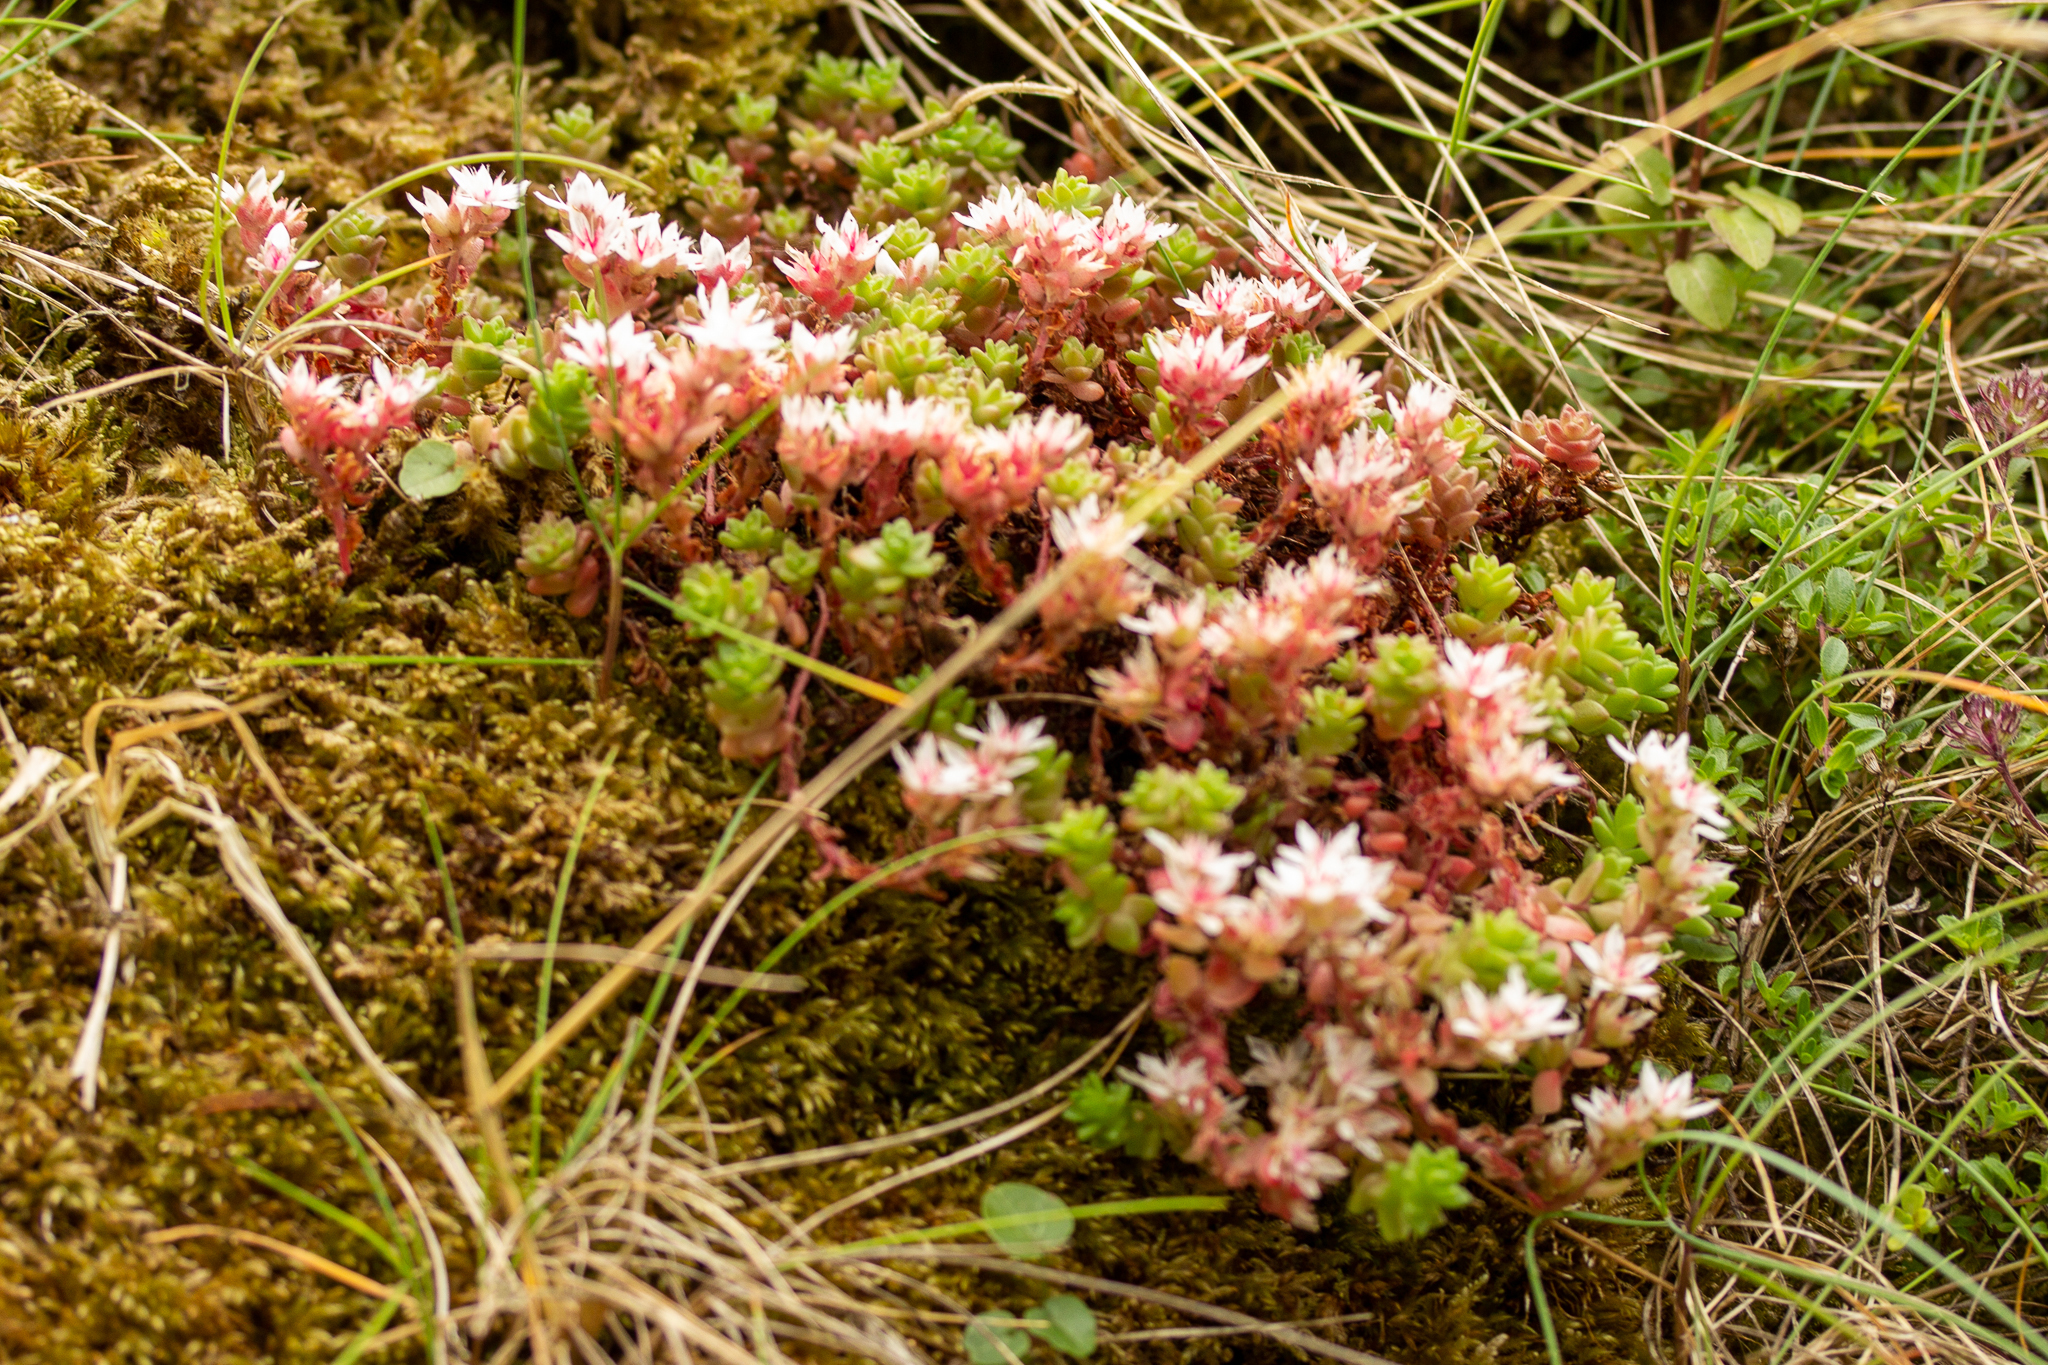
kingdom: Plantae
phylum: Tracheophyta
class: Magnoliopsida
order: Saxifragales
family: Crassulaceae
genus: Sedum
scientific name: Sedum anglicum
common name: English stonecrop
